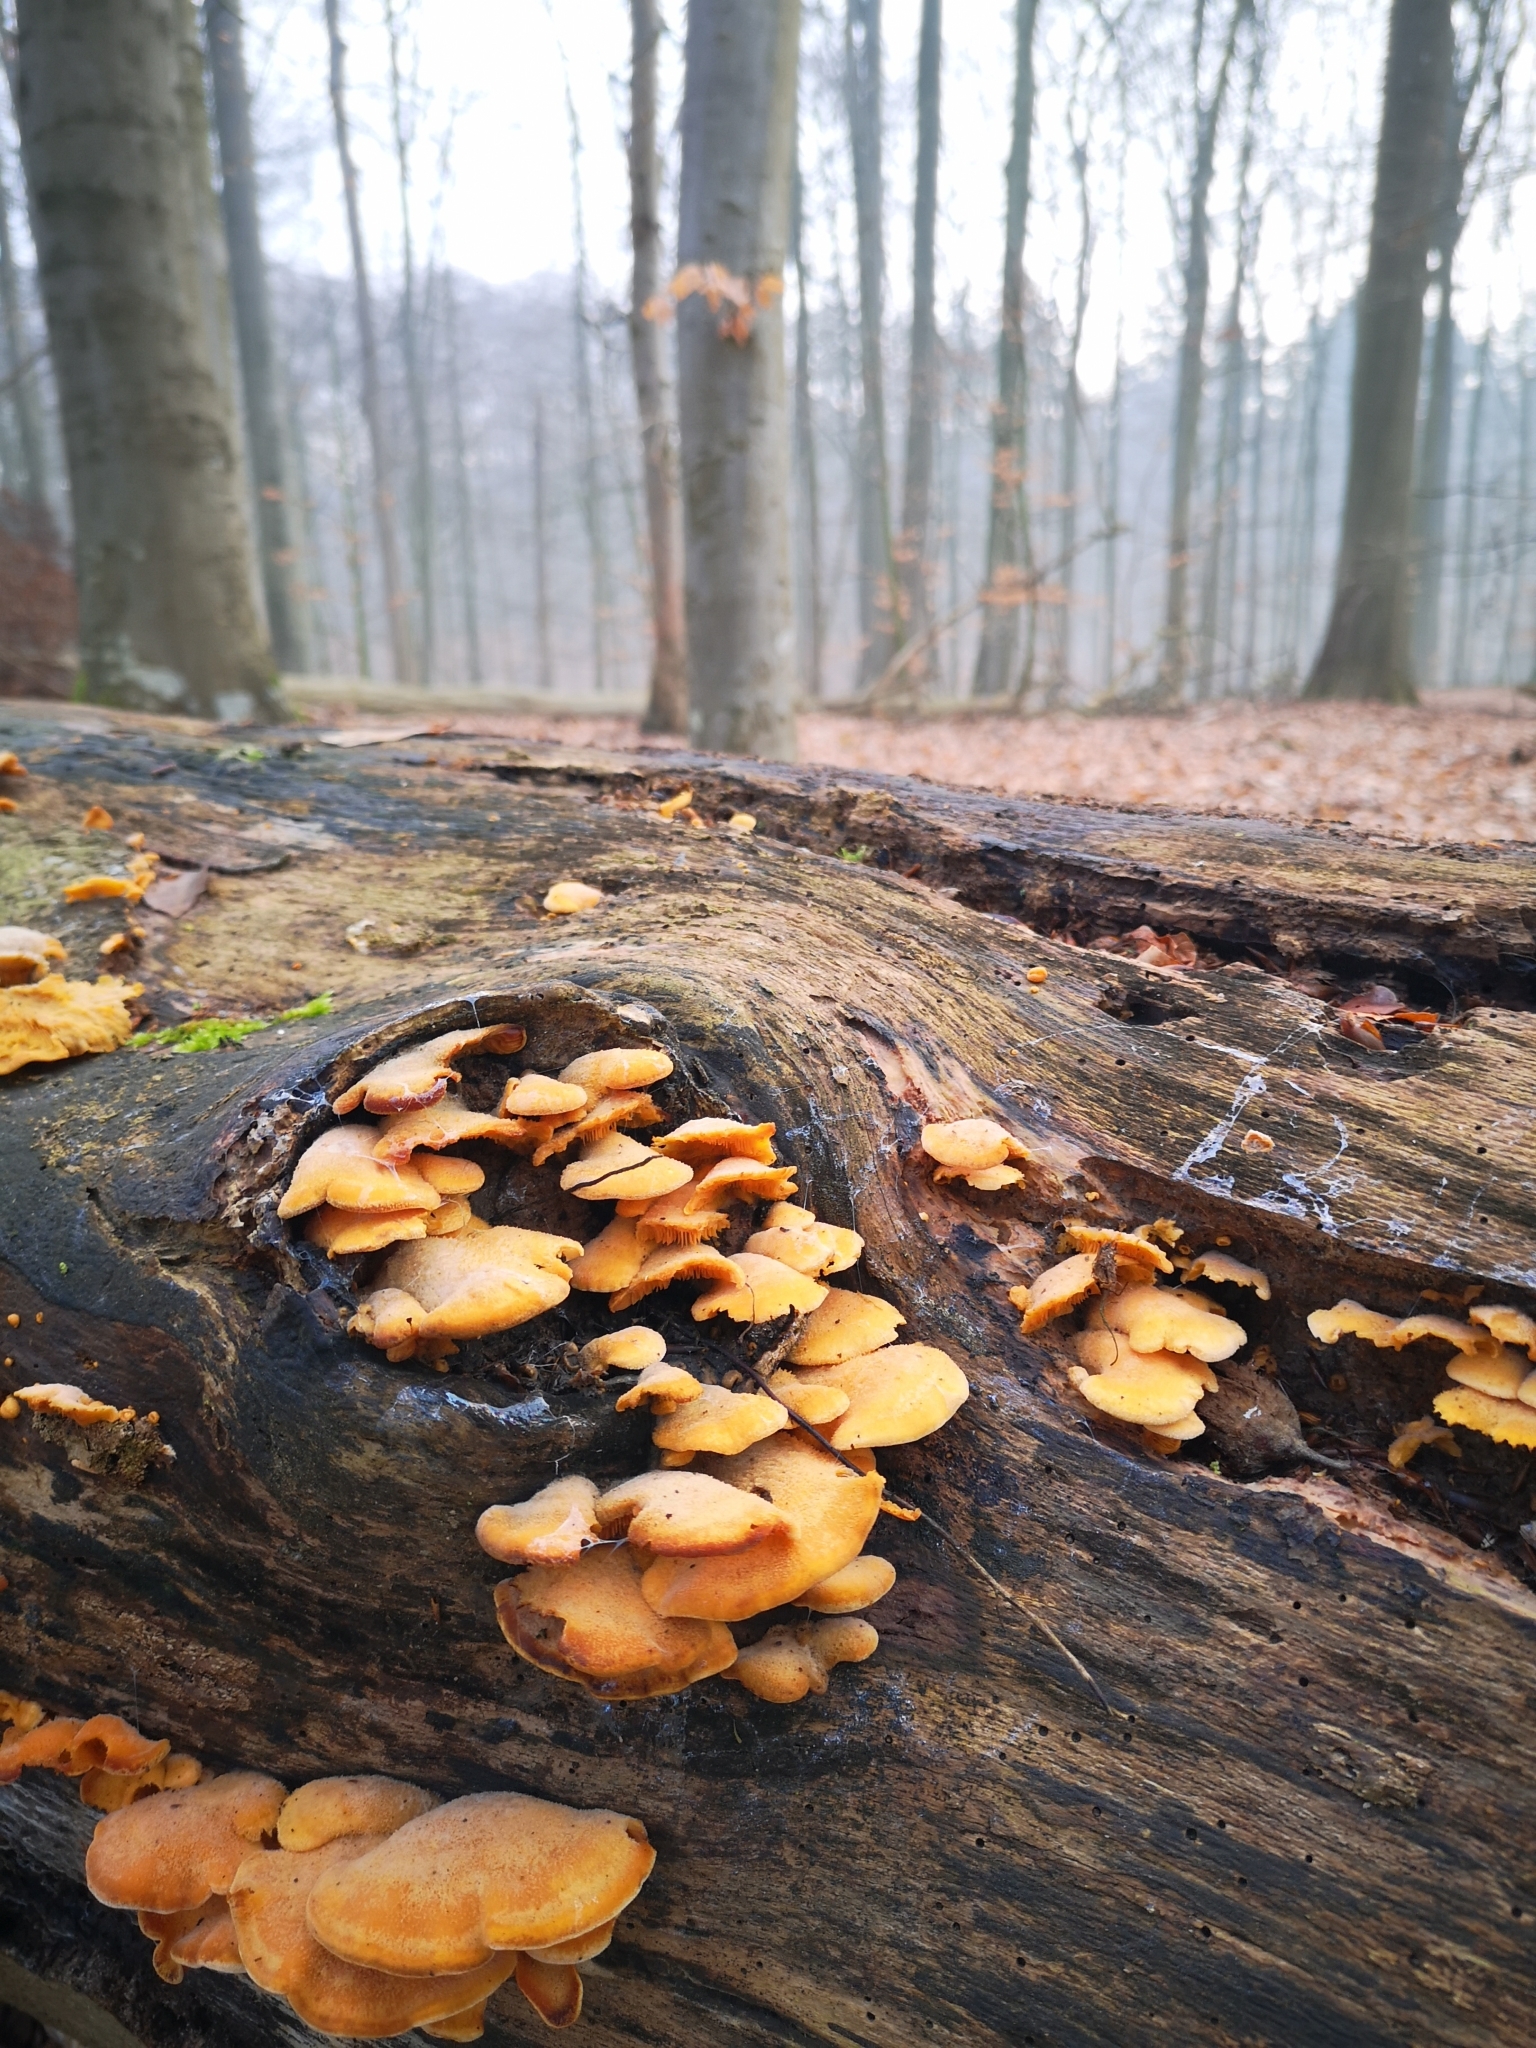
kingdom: Fungi
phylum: Basidiomycota
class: Agaricomycetes
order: Agaricales
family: Phyllotopsidaceae
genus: Phyllotopsis
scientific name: Phyllotopsis nidulans
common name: Orange mock oyster
